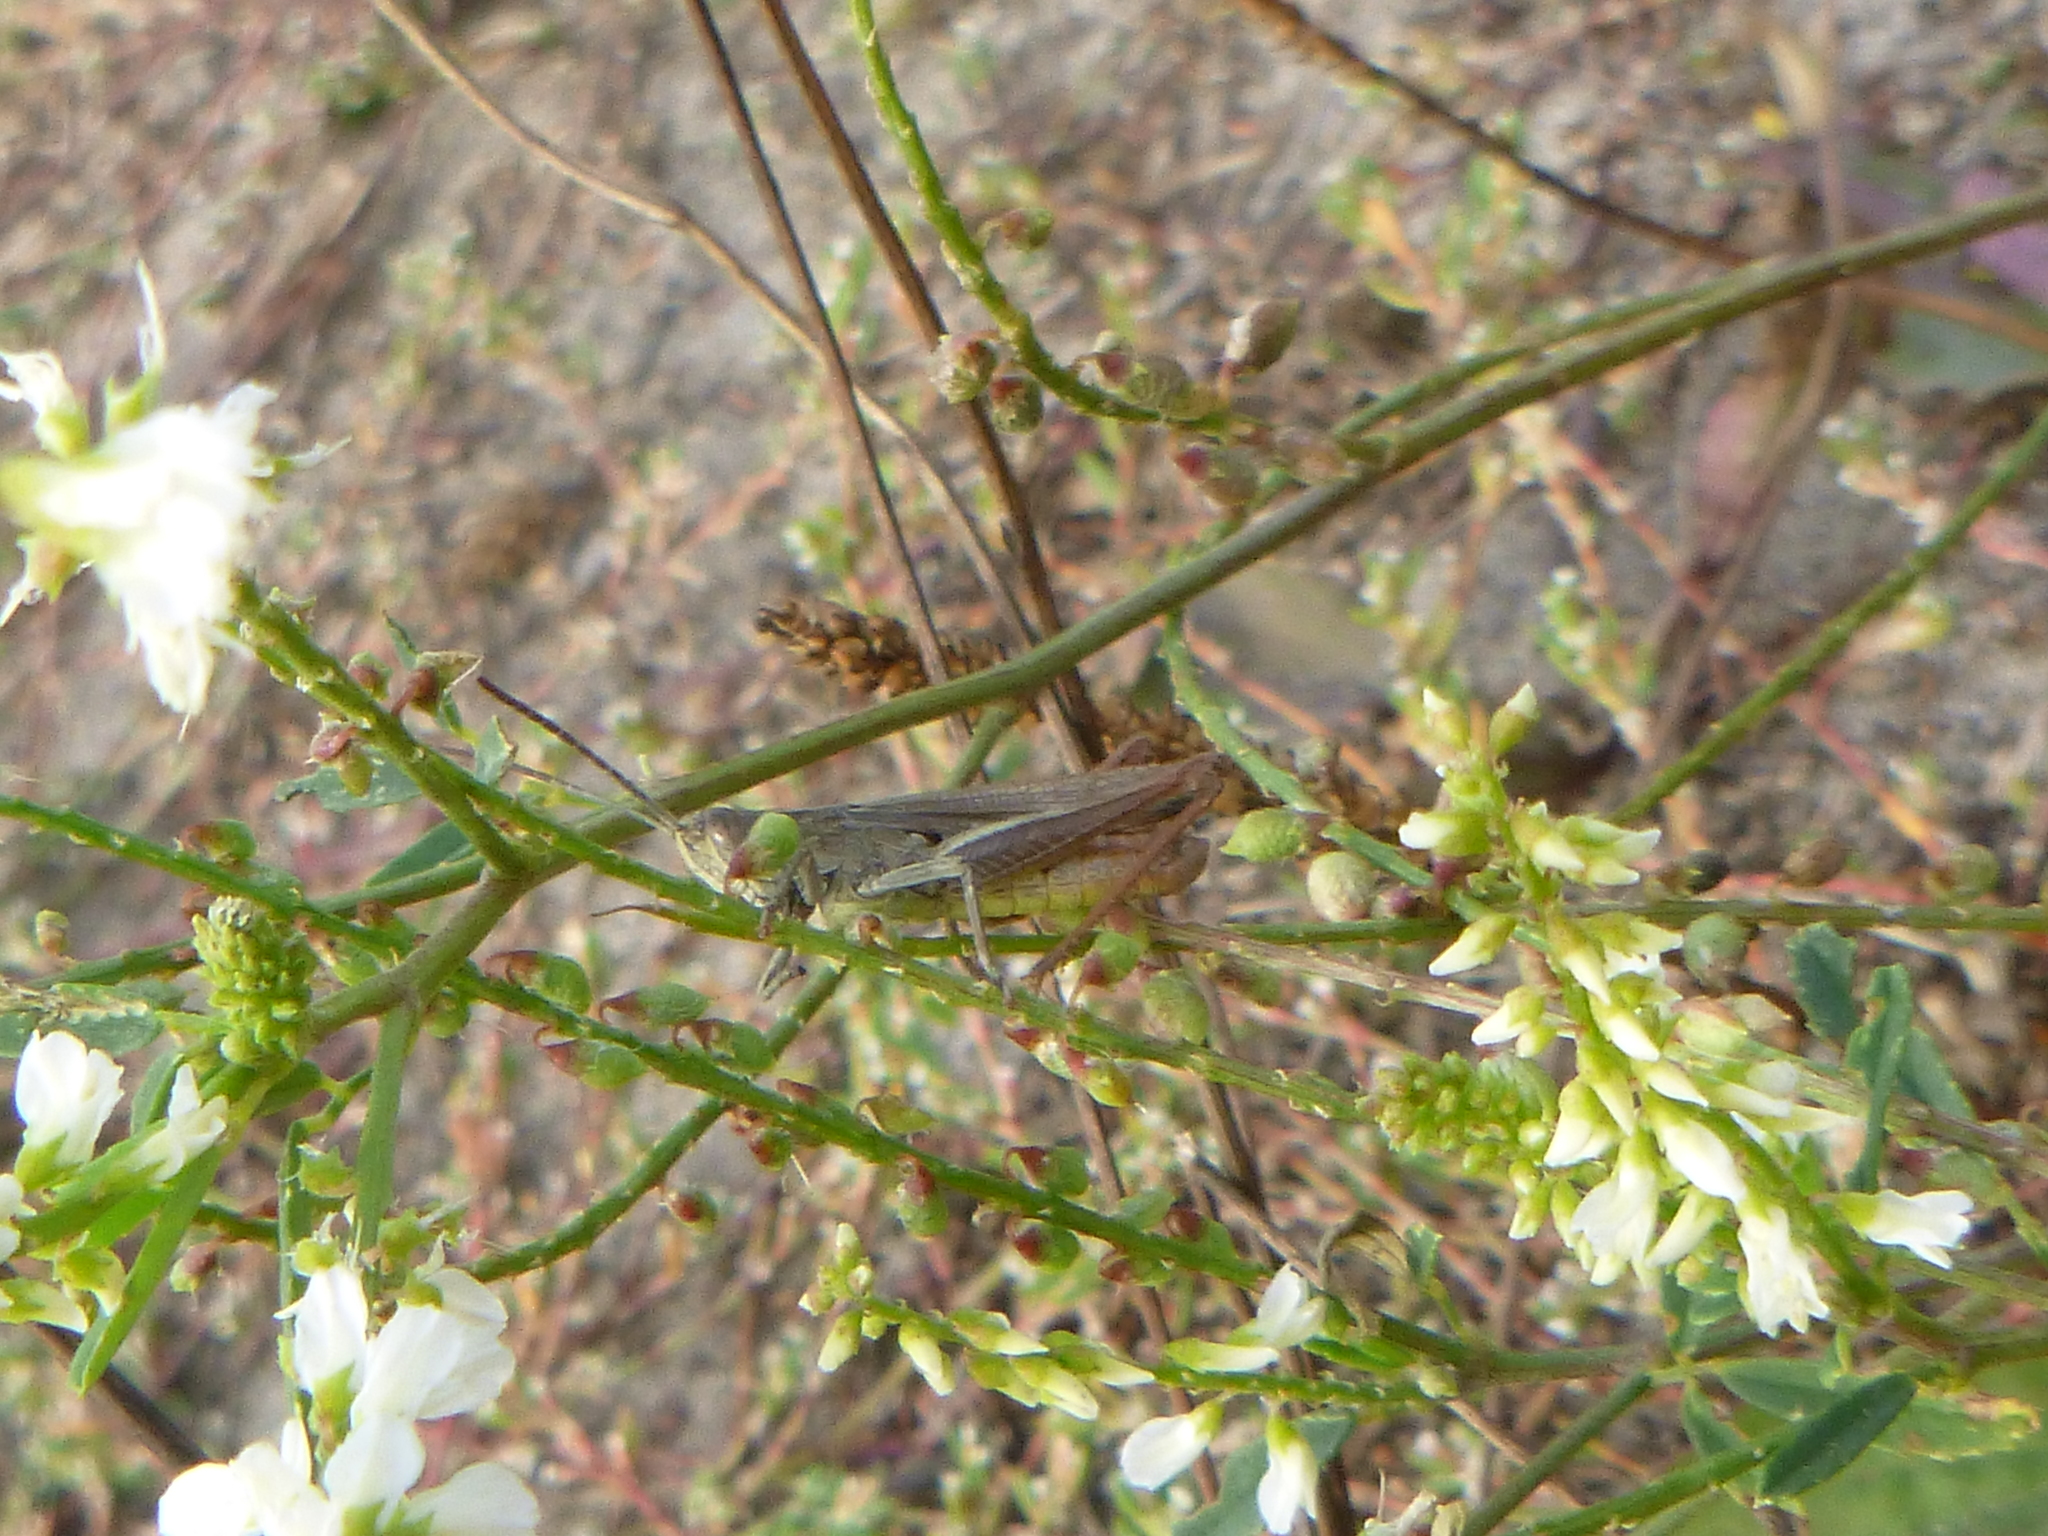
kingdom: Animalia
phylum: Arthropoda
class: Insecta
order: Orthoptera
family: Acrididae
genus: Chorthippus
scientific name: Chorthippus dorsatus
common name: Steppe grasshopper
